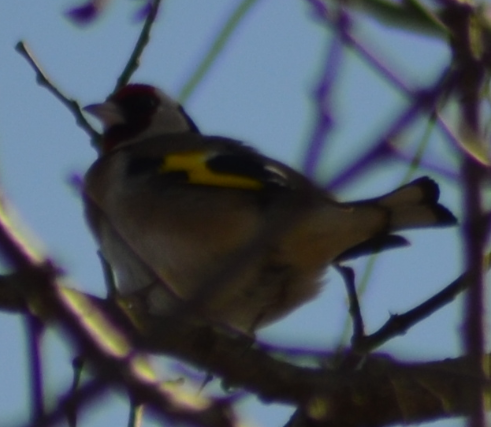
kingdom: Animalia
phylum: Chordata
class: Aves
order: Passeriformes
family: Fringillidae
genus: Carduelis
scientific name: Carduelis carduelis
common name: European goldfinch
